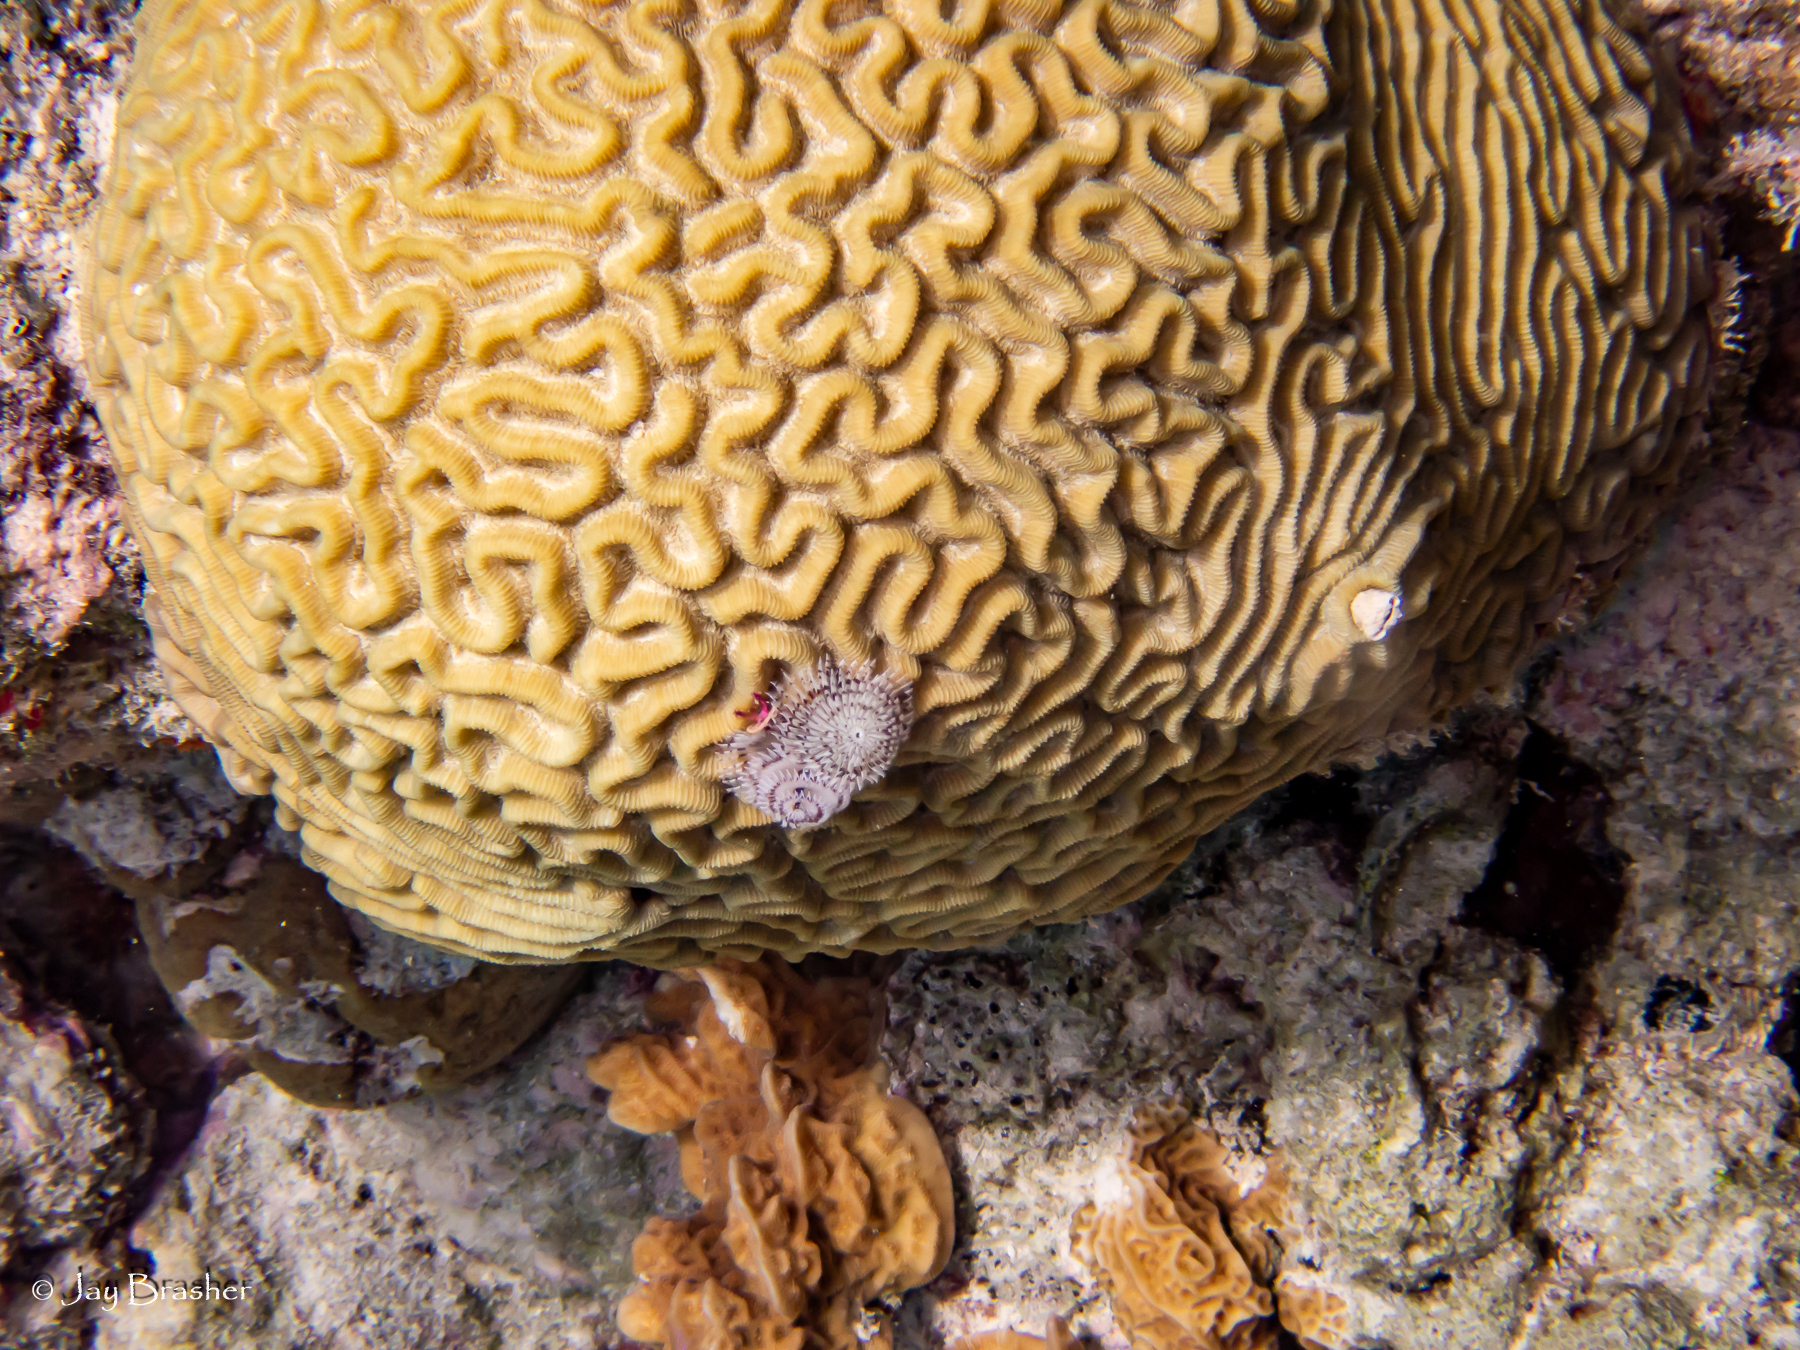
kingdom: Animalia
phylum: Annelida
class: Polychaeta
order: Sabellida
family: Serpulidae
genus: Spirobranchus
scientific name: Spirobranchus giganteus
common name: Christmas tree worm
